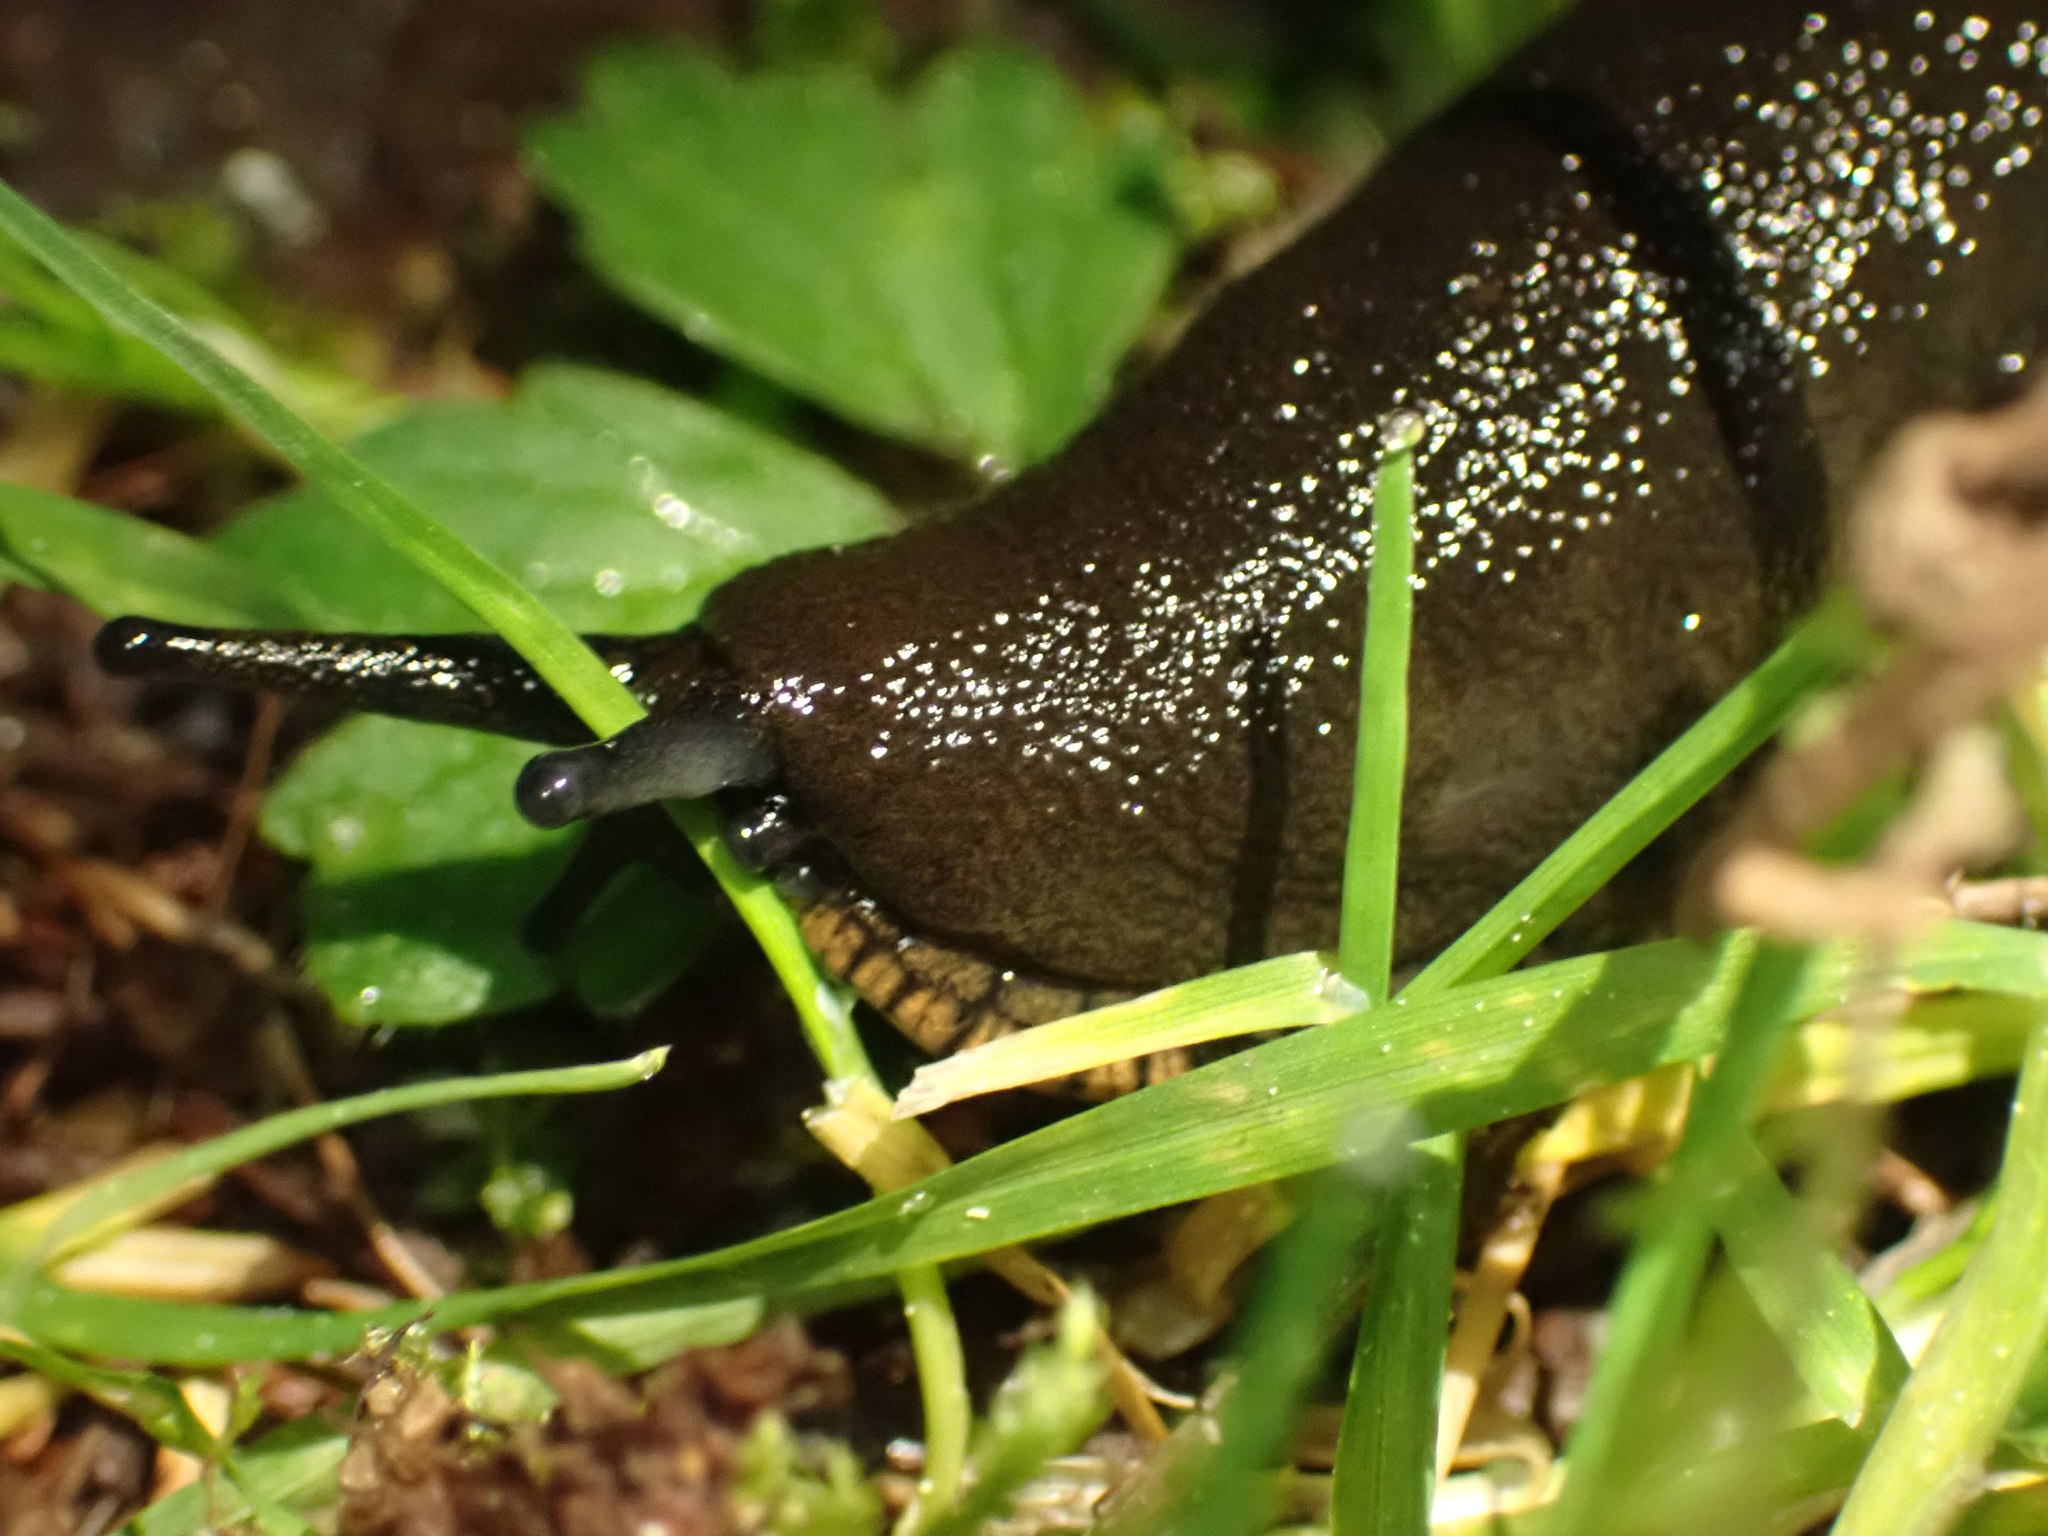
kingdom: Animalia
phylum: Mollusca
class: Gastropoda
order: Stylommatophora
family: Arionidae
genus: Arion
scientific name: Arion
